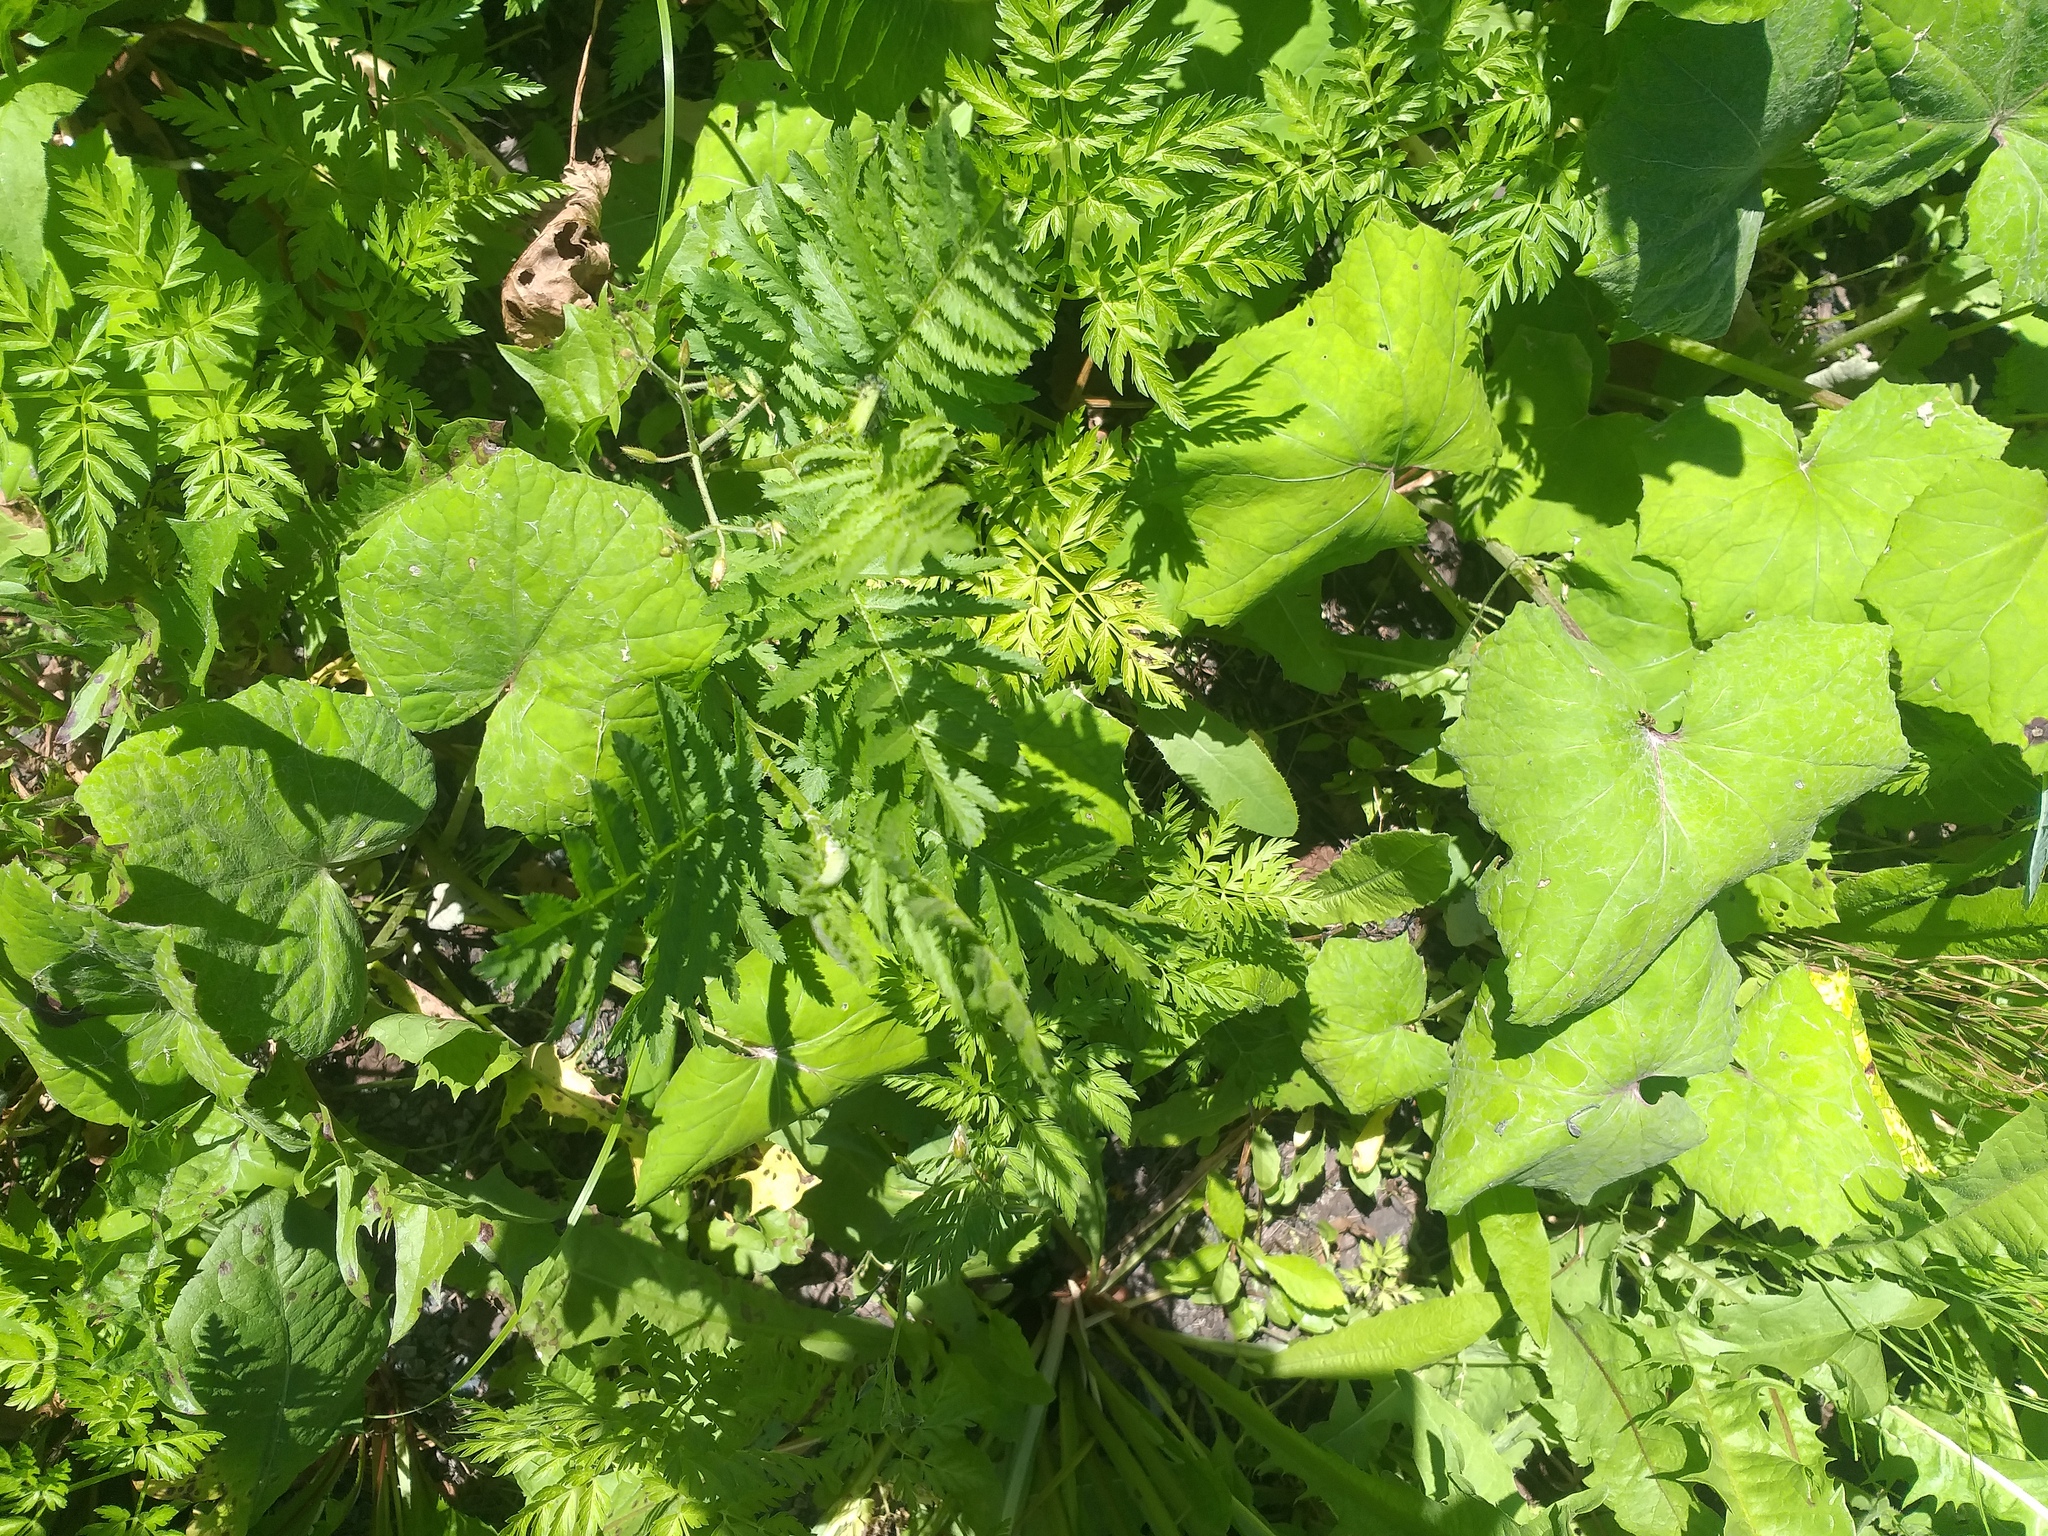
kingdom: Plantae
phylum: Tracheophyta
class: Magnoliopsida
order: Asterales
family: Asteraceae
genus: Tanacetum
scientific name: Tanacetum vulgare
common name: Common tansy
